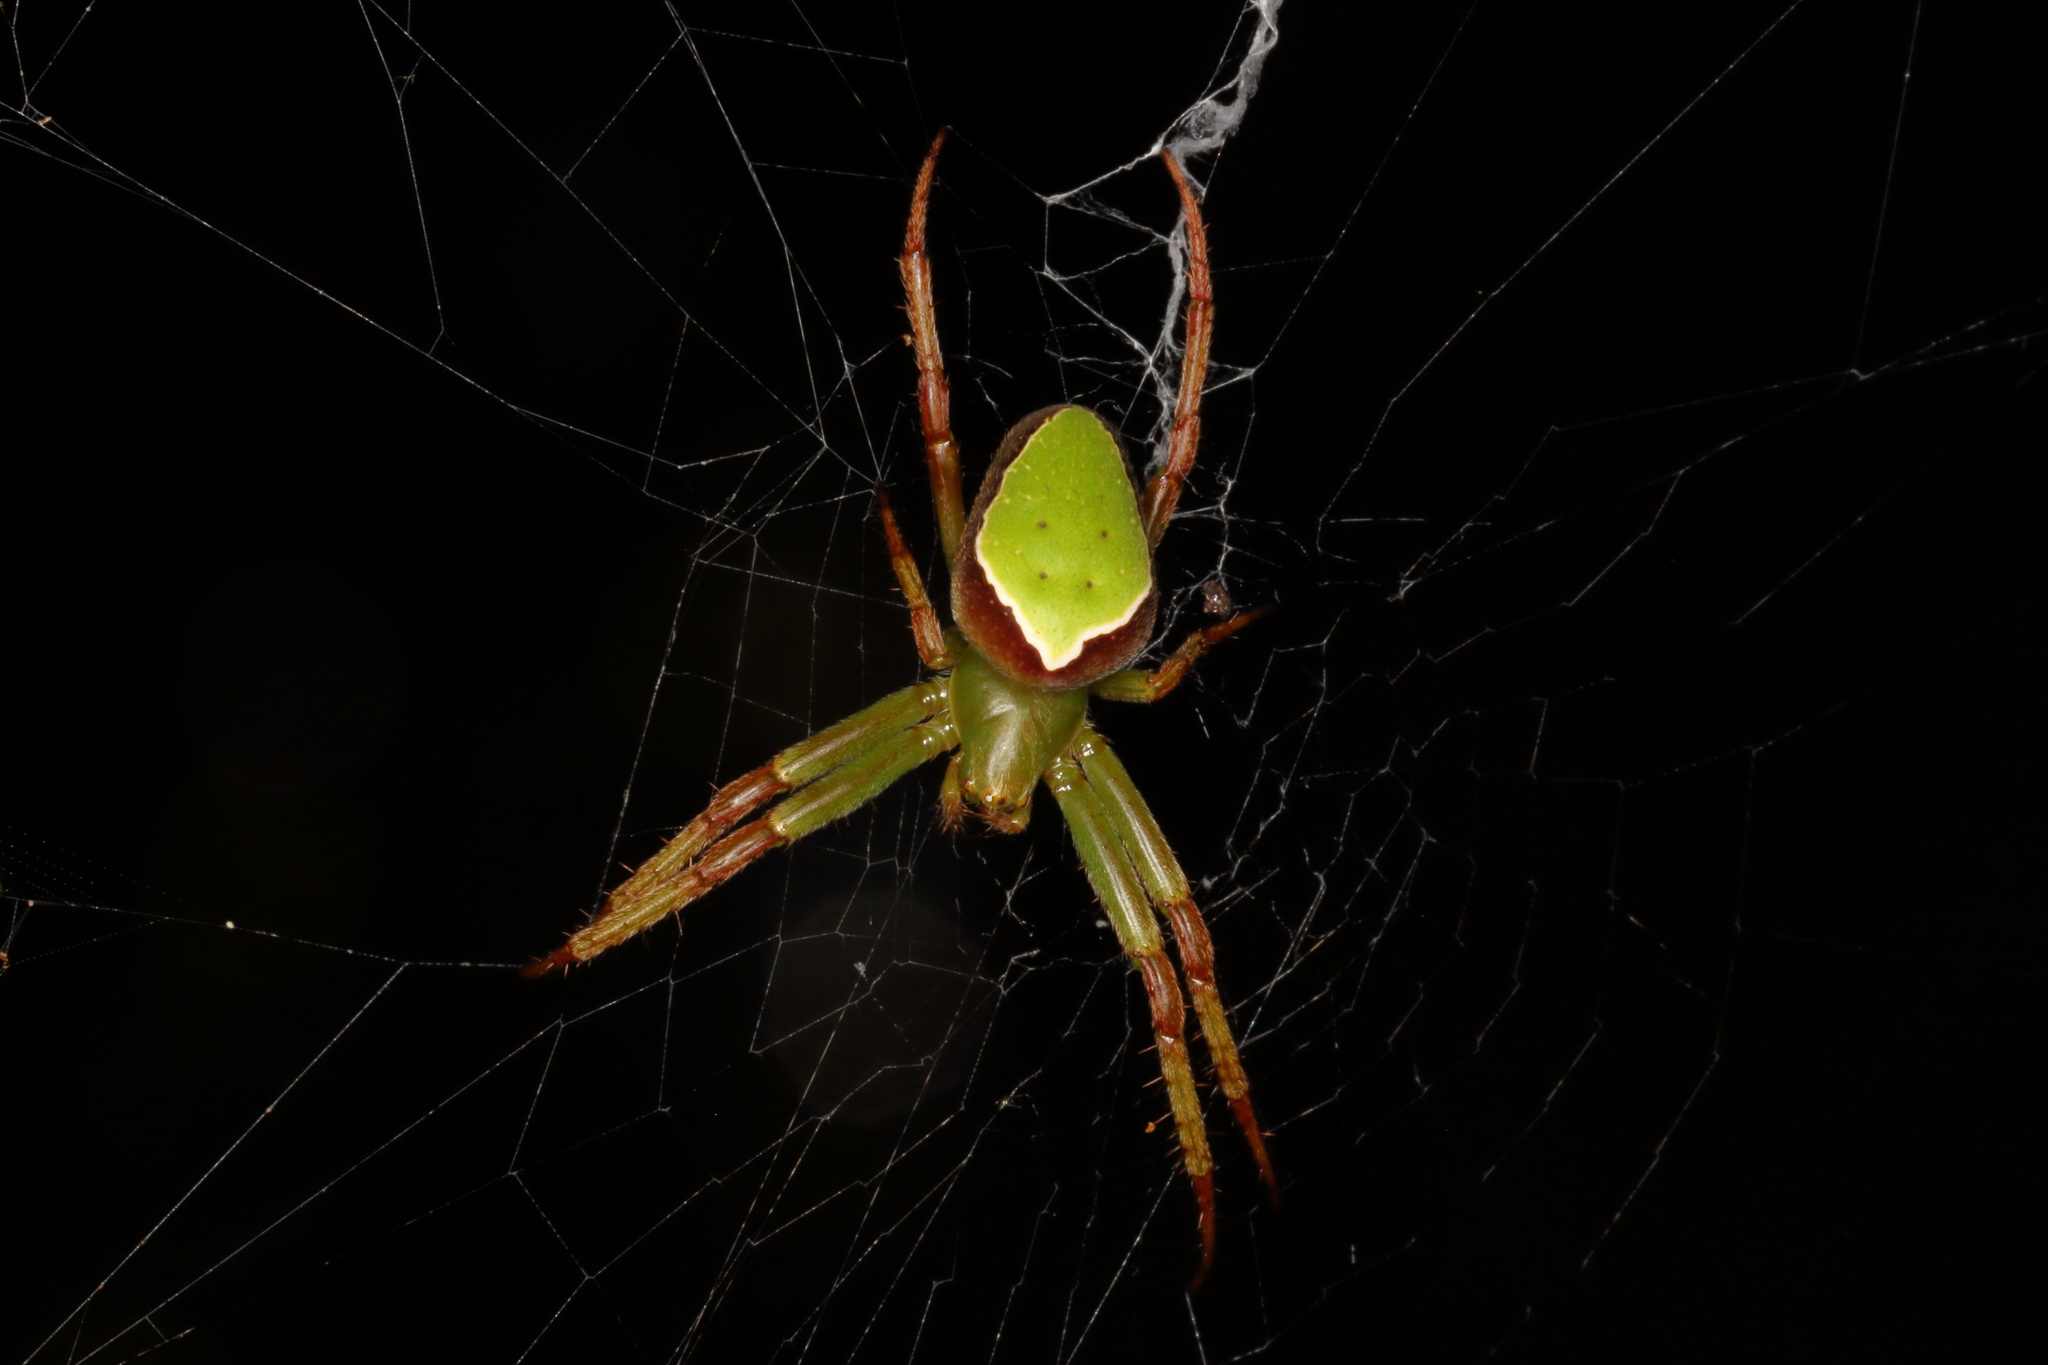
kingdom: Animalia
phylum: Arthropoda
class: Arachnida
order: Araneae
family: Araneidae
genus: Colaranea
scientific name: Colaranea viriditas
